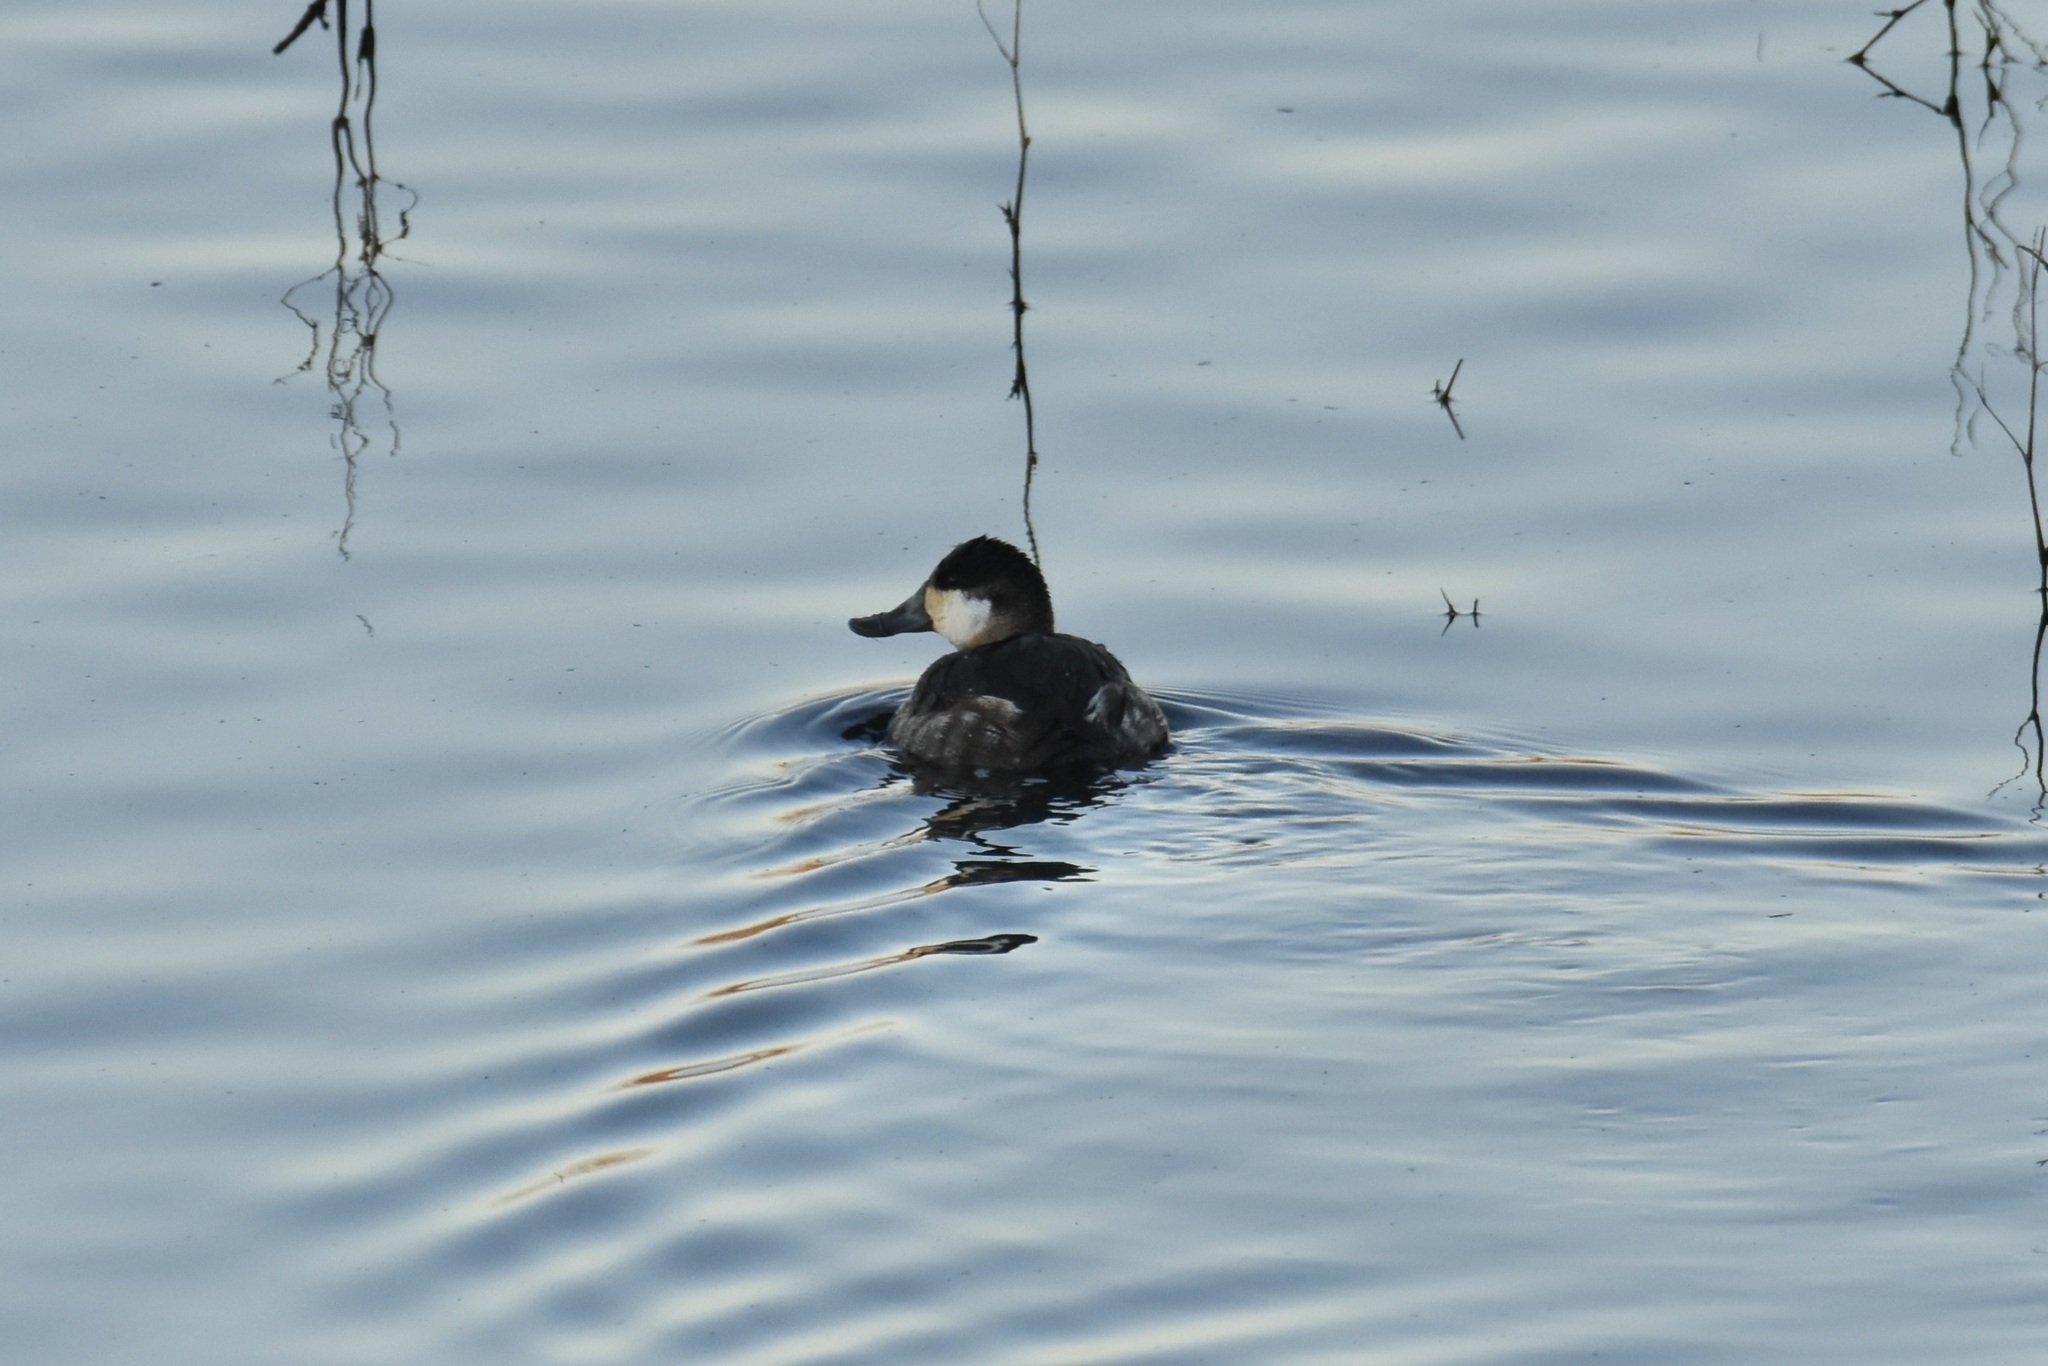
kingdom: Animalia
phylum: Chordata
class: Aves
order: Anseriformes
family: Anatidae
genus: Oxyura
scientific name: Oxyura jamaicensis
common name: Ruddy duck
